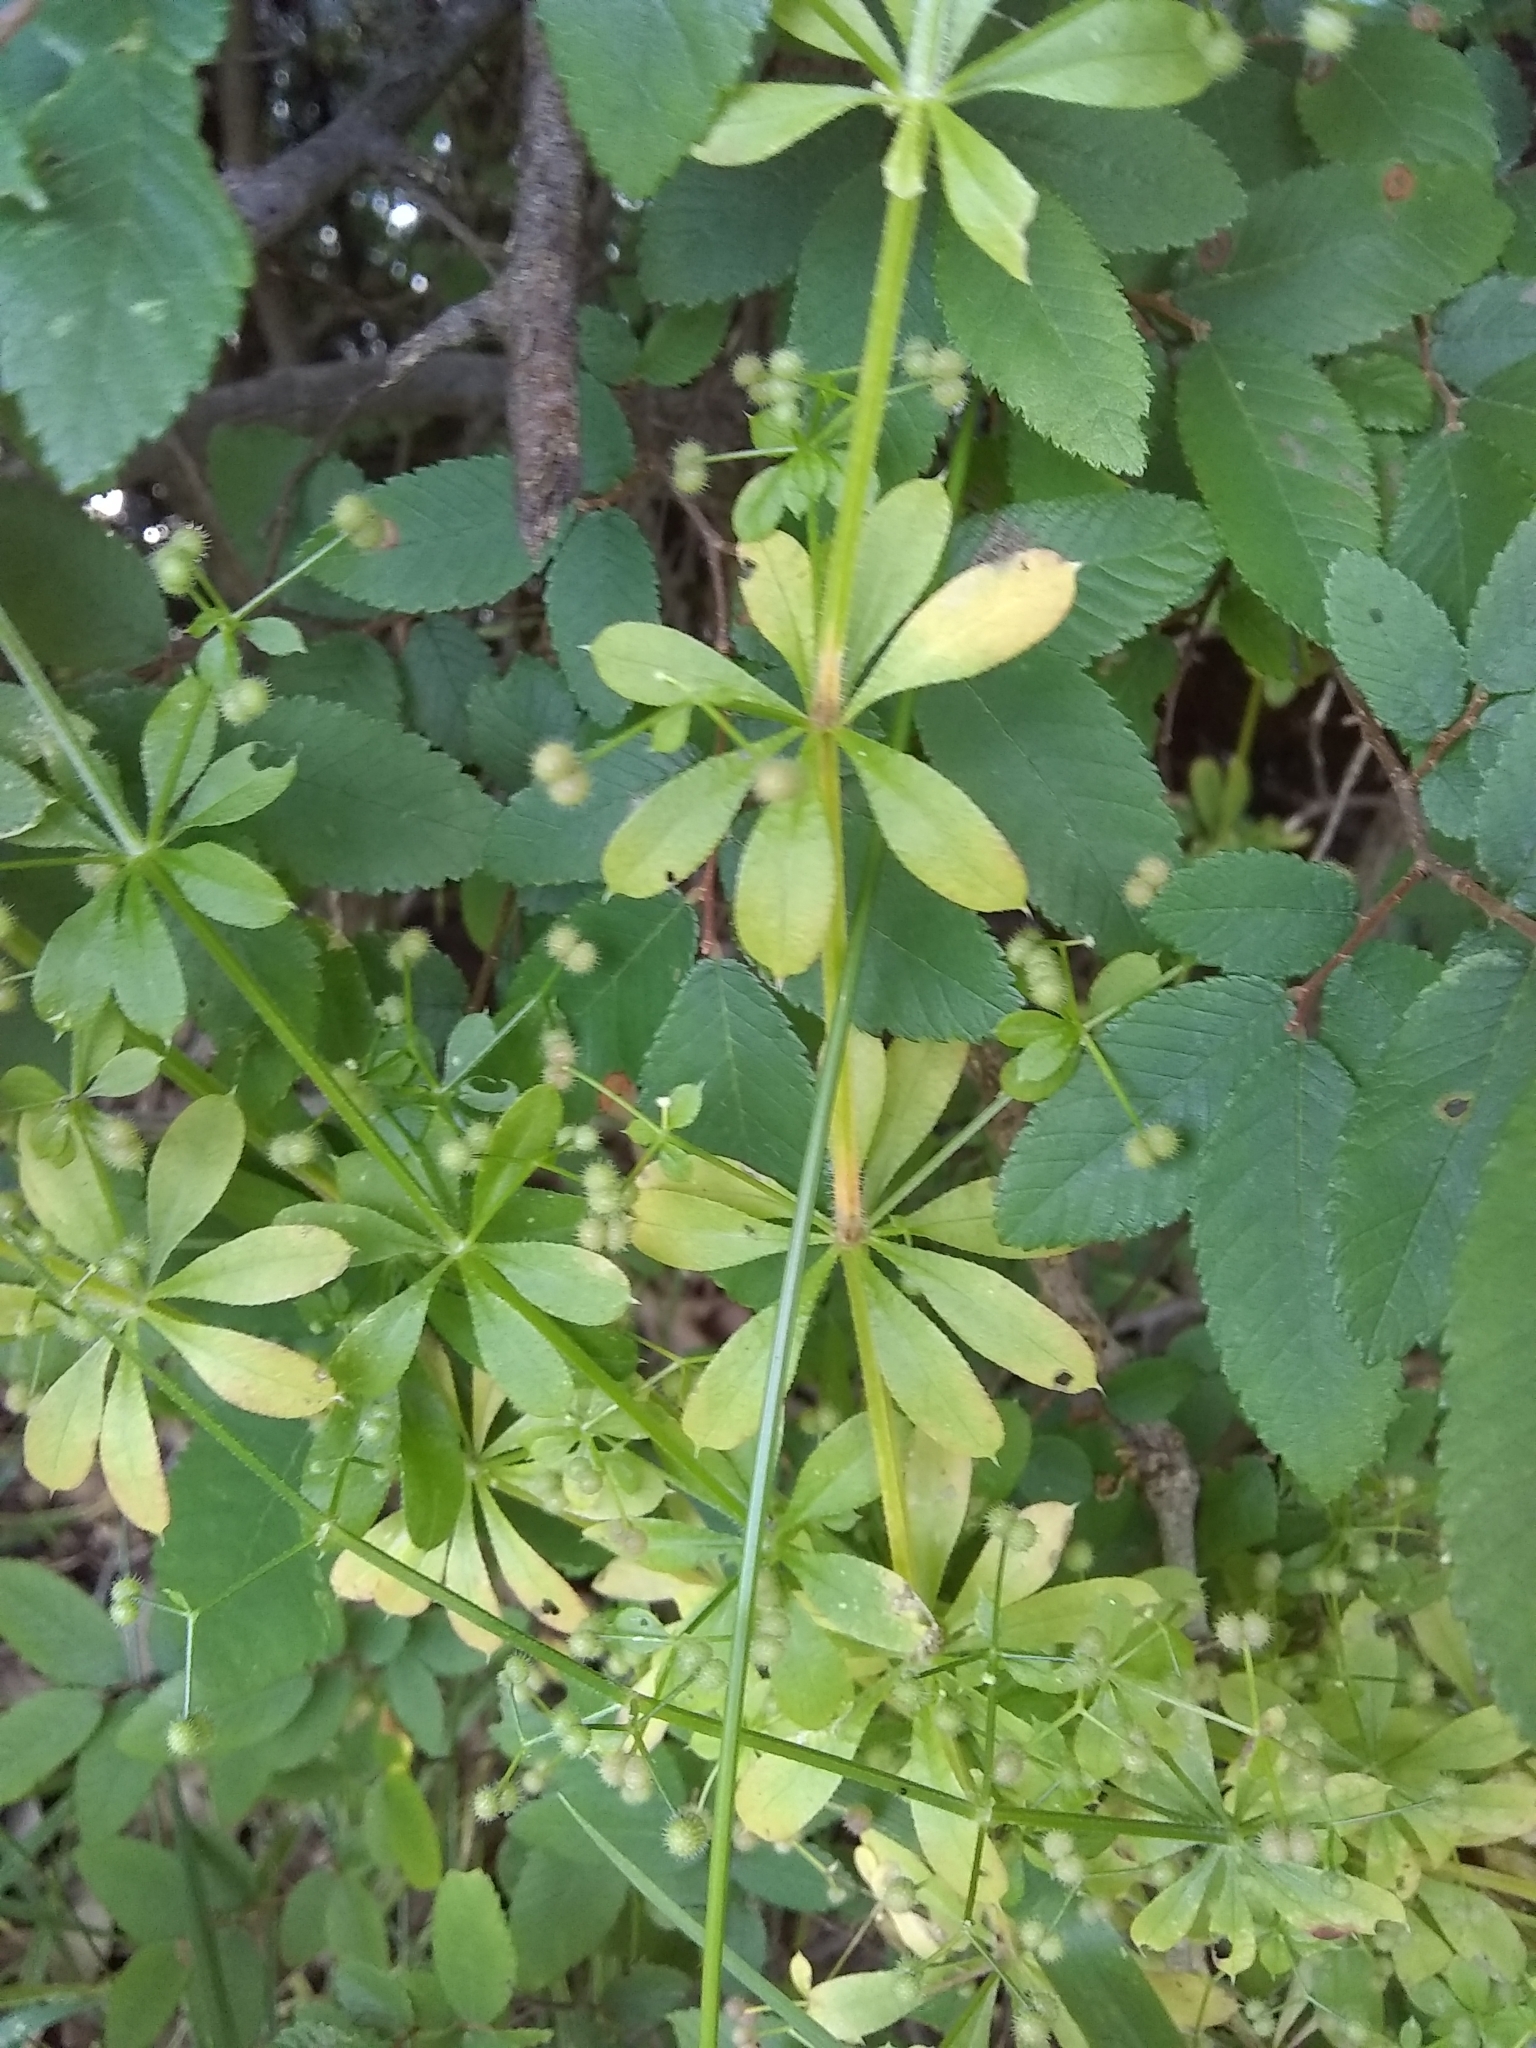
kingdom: Plantae
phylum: Tracheophyta
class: Magnoliopsida
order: Gentianales
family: Rubiaceae
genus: Galium
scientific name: Galium aparine
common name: Cleavers
